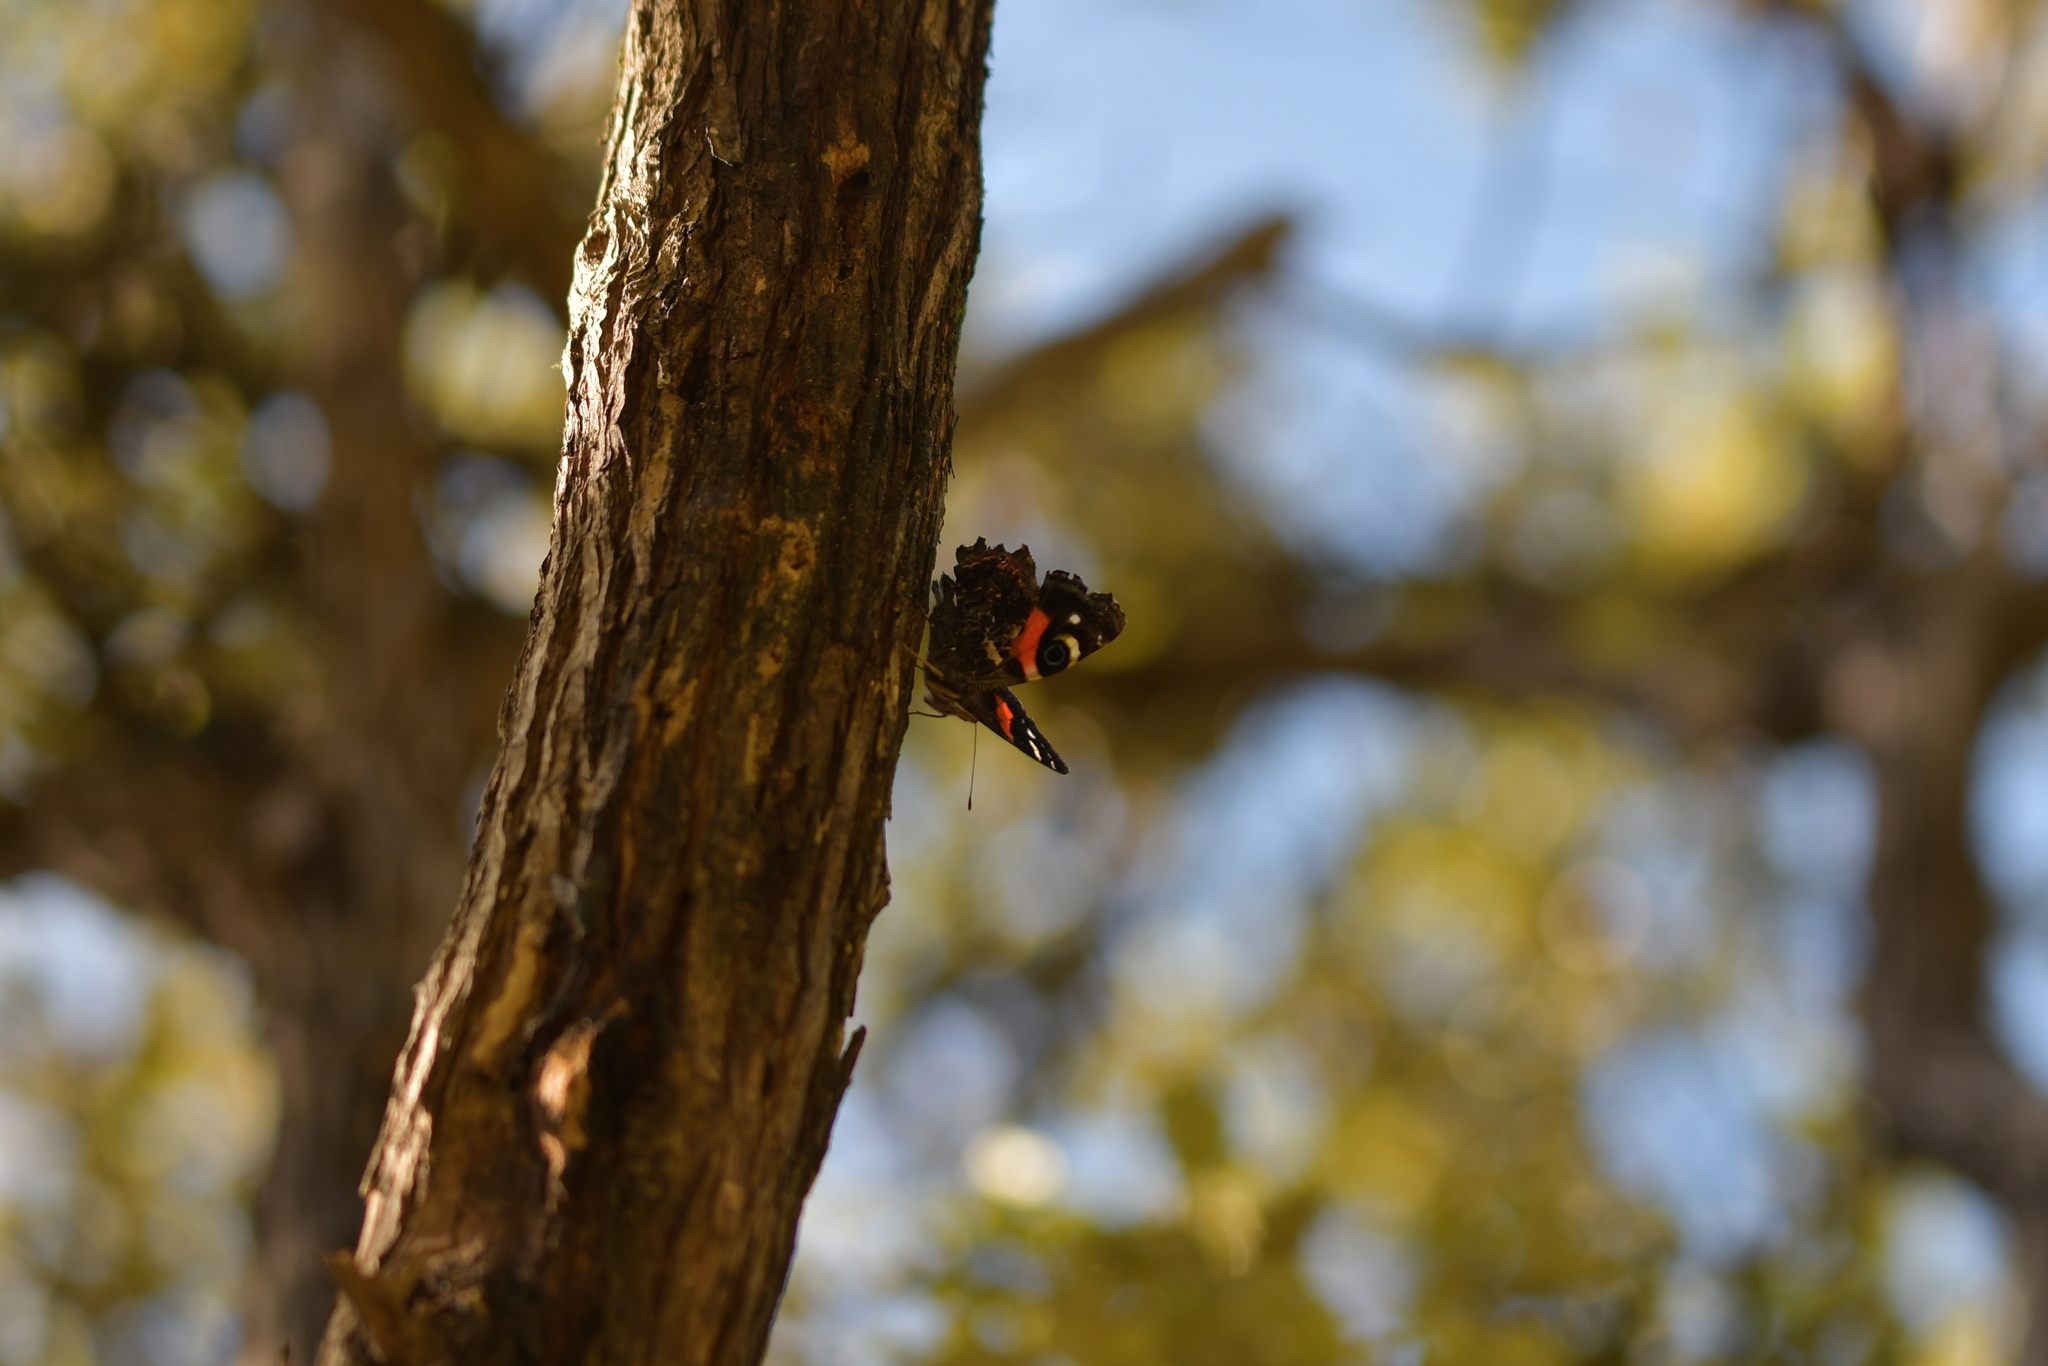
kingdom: Animalia
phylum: Arthropoda
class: Insecta
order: Lepidoptera
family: Nymphalidae
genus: Vanessa
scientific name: Vanessa gonerilla
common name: New zealand red admiral
